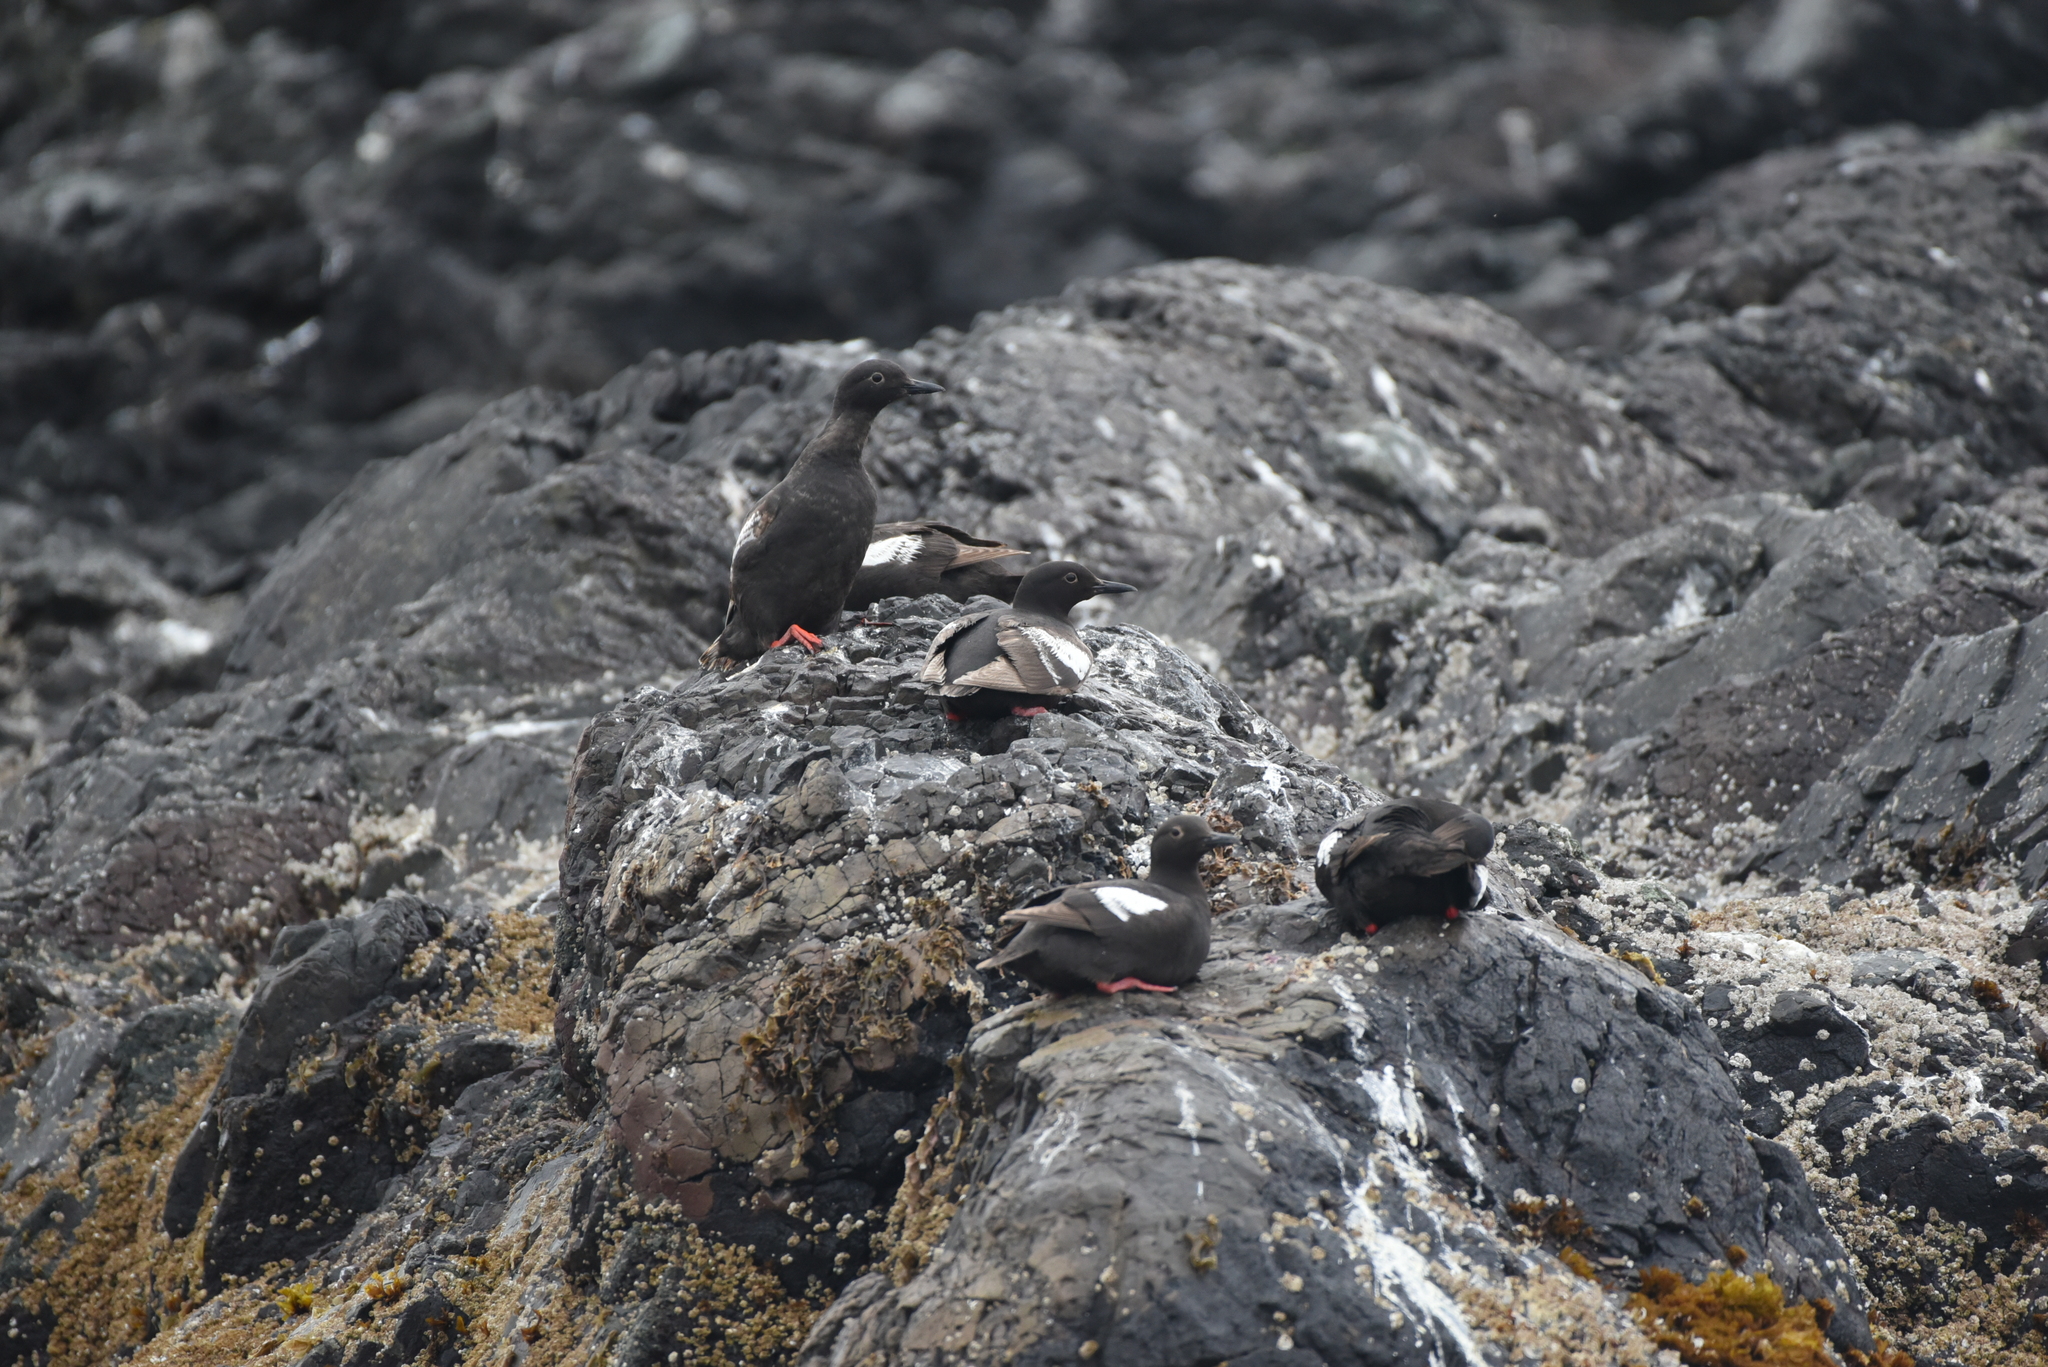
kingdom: Animalia
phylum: Chordata
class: Aves
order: Charadriiformes
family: Alcidae
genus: Cepphus
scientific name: Cepphus columba
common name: Pigeon guillemot
